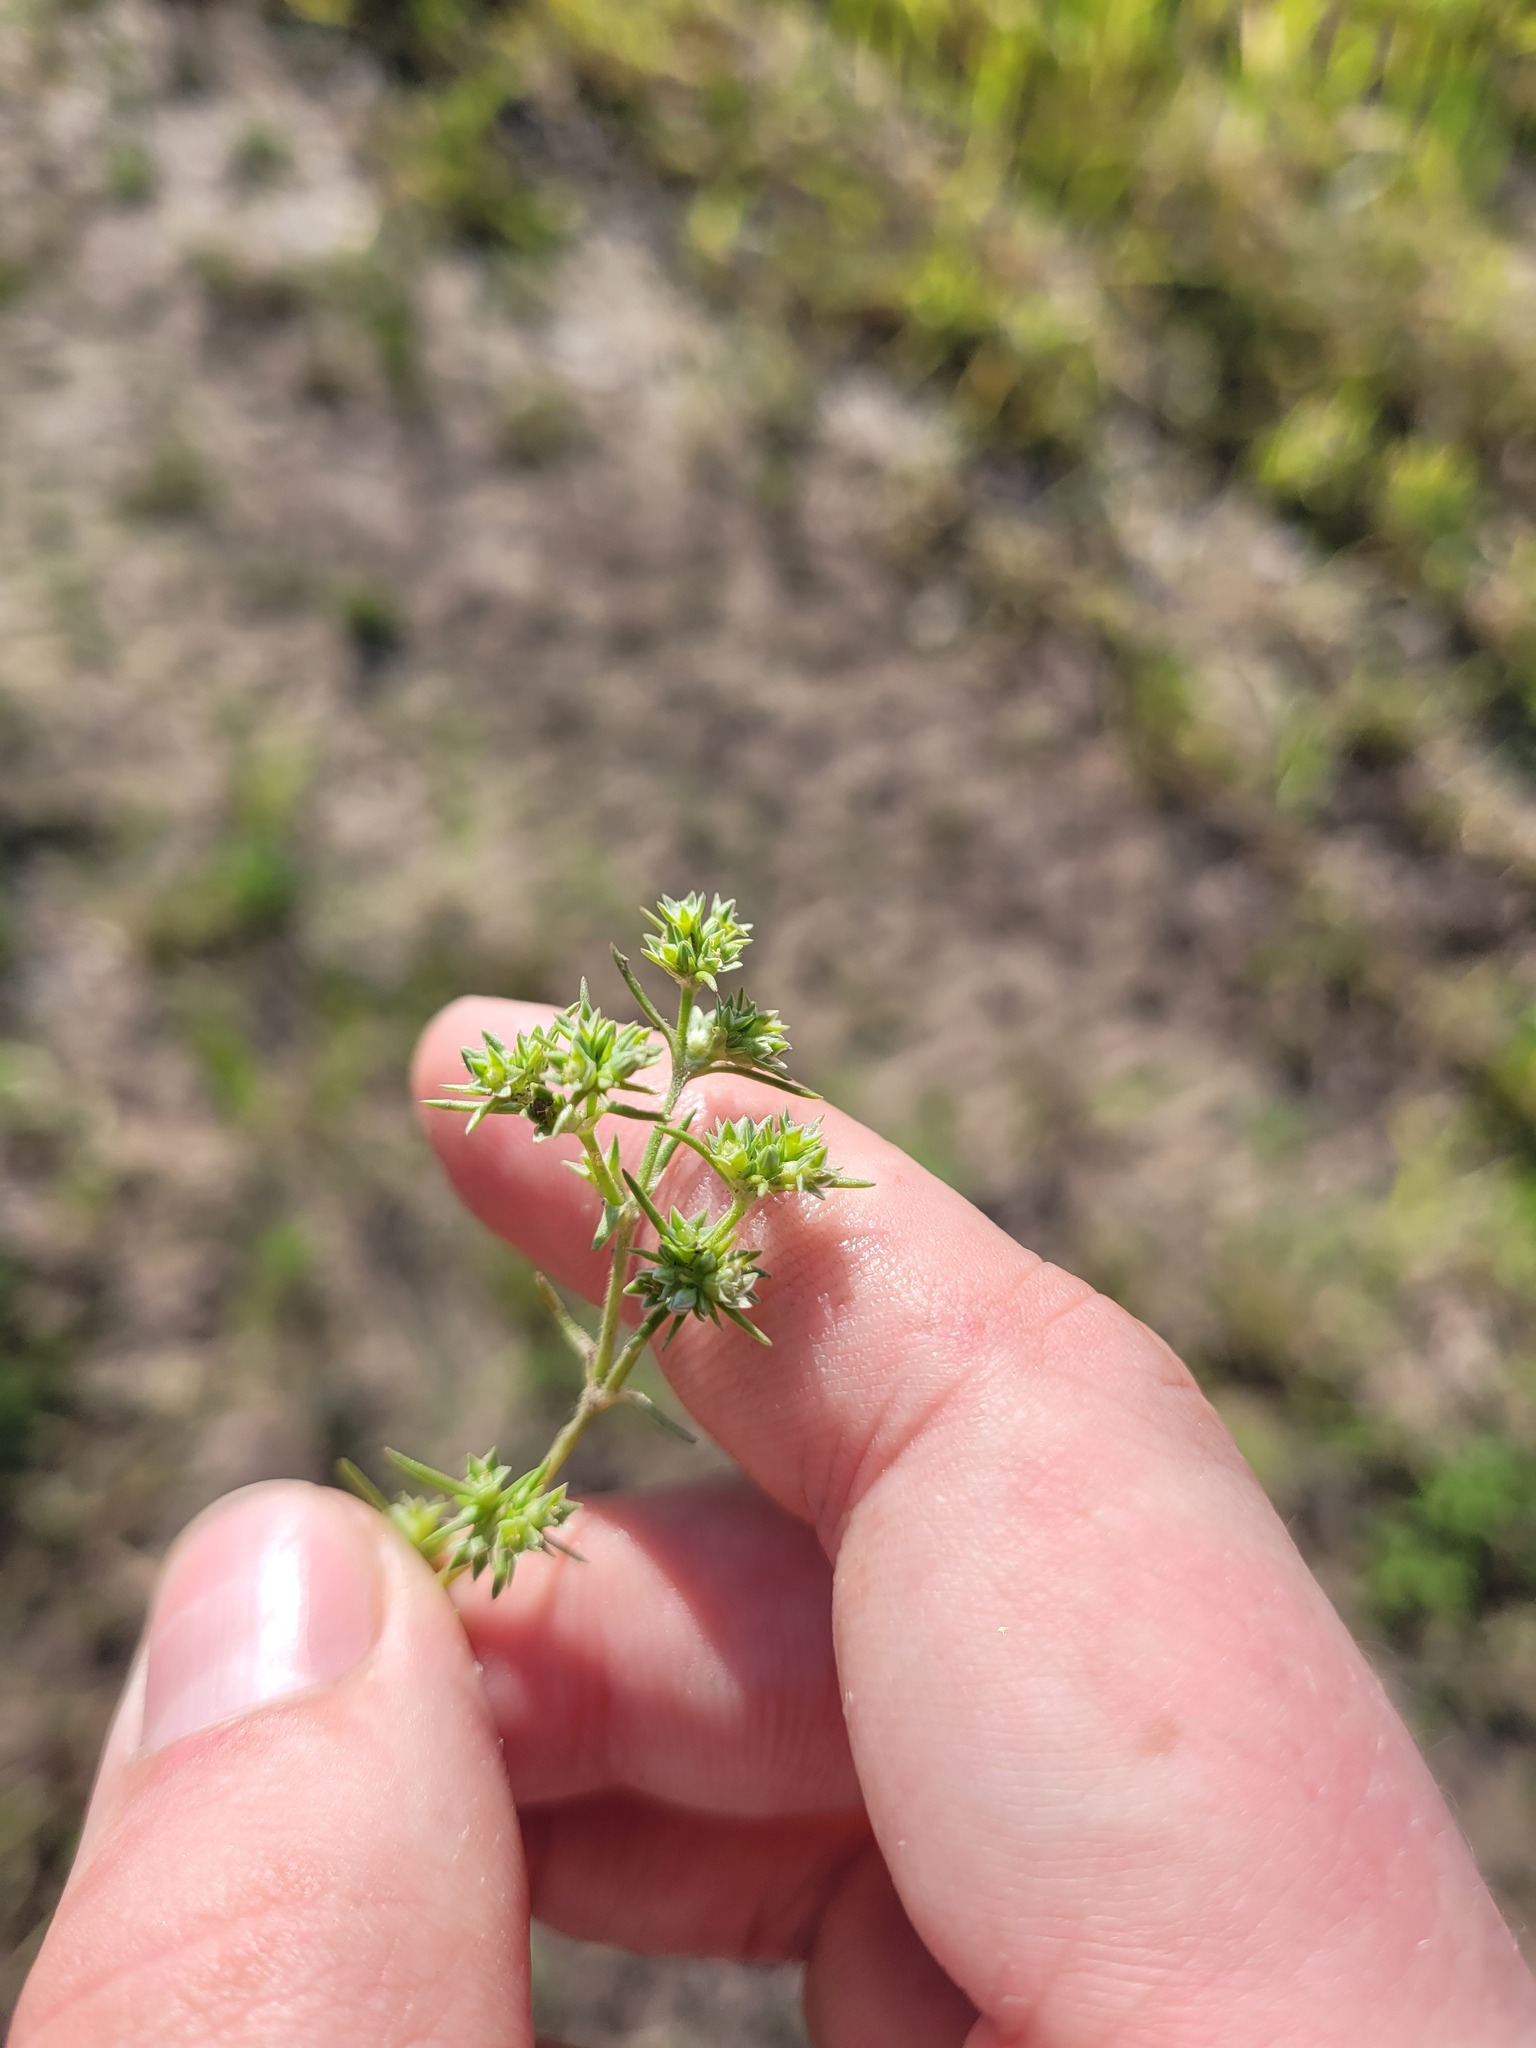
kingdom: Plantae
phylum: Tracheophyta
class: Magnoliopsida
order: Caryophyllales
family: Caryophyllaceae
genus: Scleranthus
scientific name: Scleranthus annuus
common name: Annual knawel
